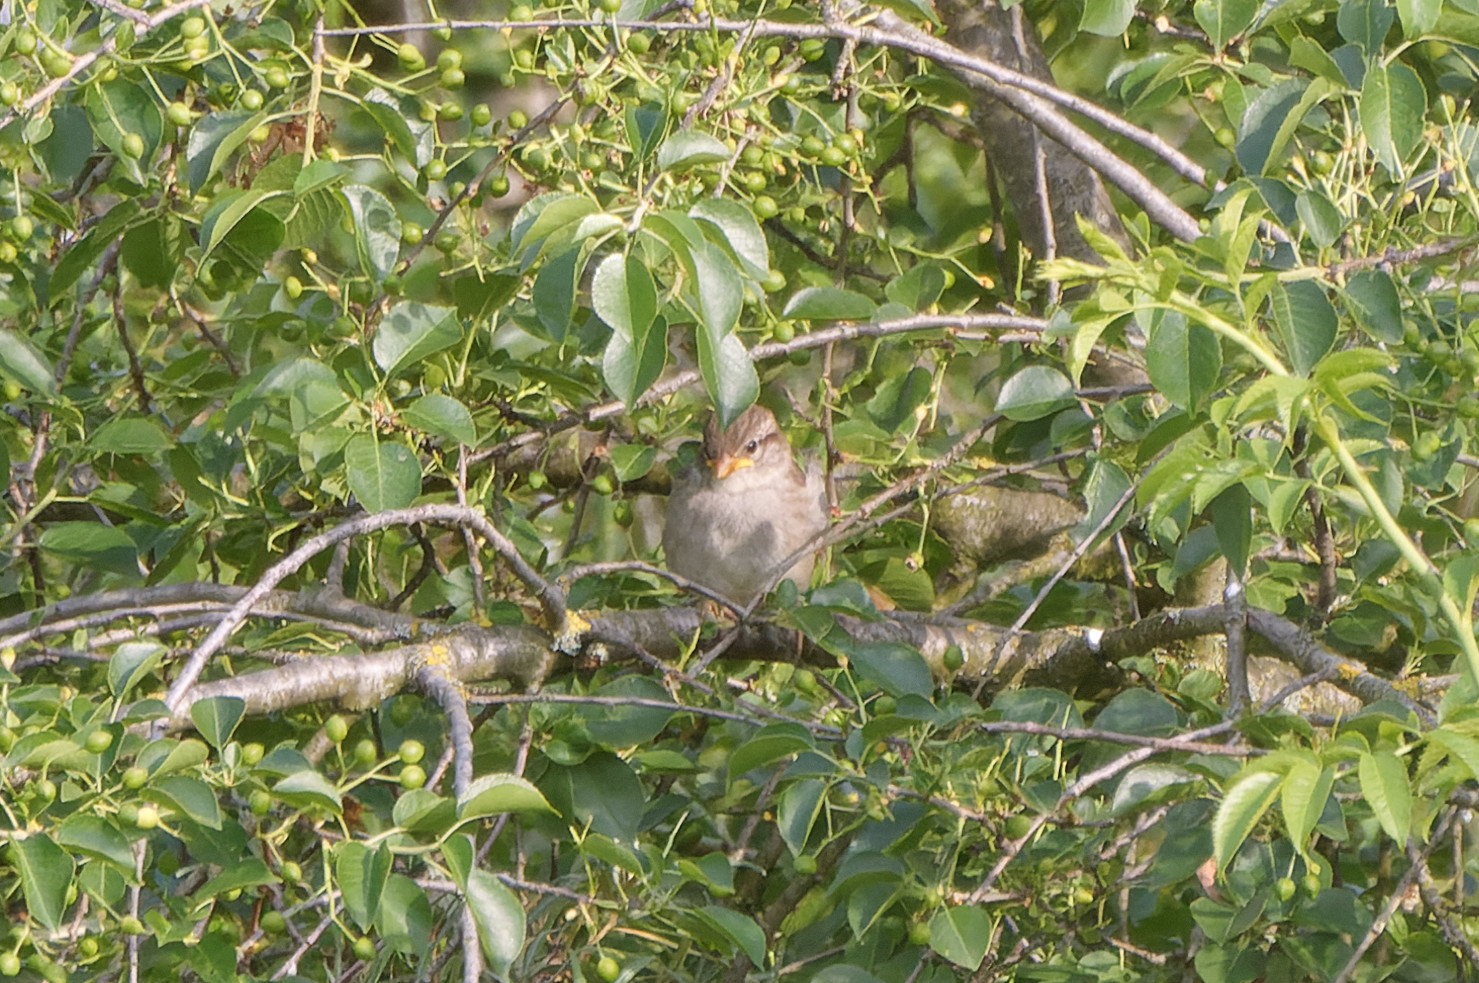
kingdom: Animalia
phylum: Chordata
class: Aves
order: Passeriformes
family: Passeridae
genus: Passer
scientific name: Passer domesticus
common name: House sparrow
